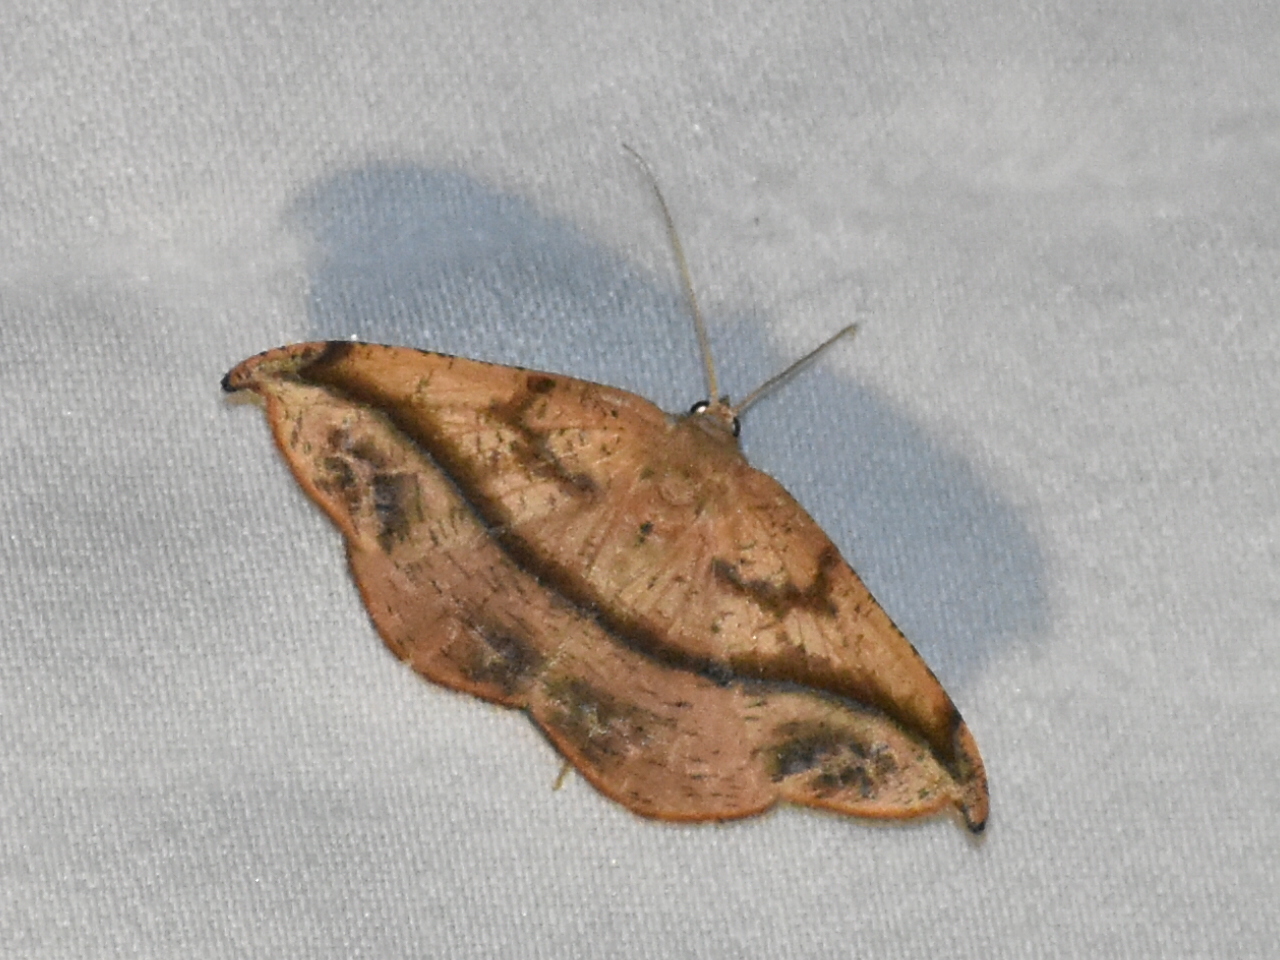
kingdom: Animalia
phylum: Arthropoda
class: Insecta
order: Lepidoptera
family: Geometridae
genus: Patalene
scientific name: Patalene olyzonaria
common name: Juniper geometer moth
